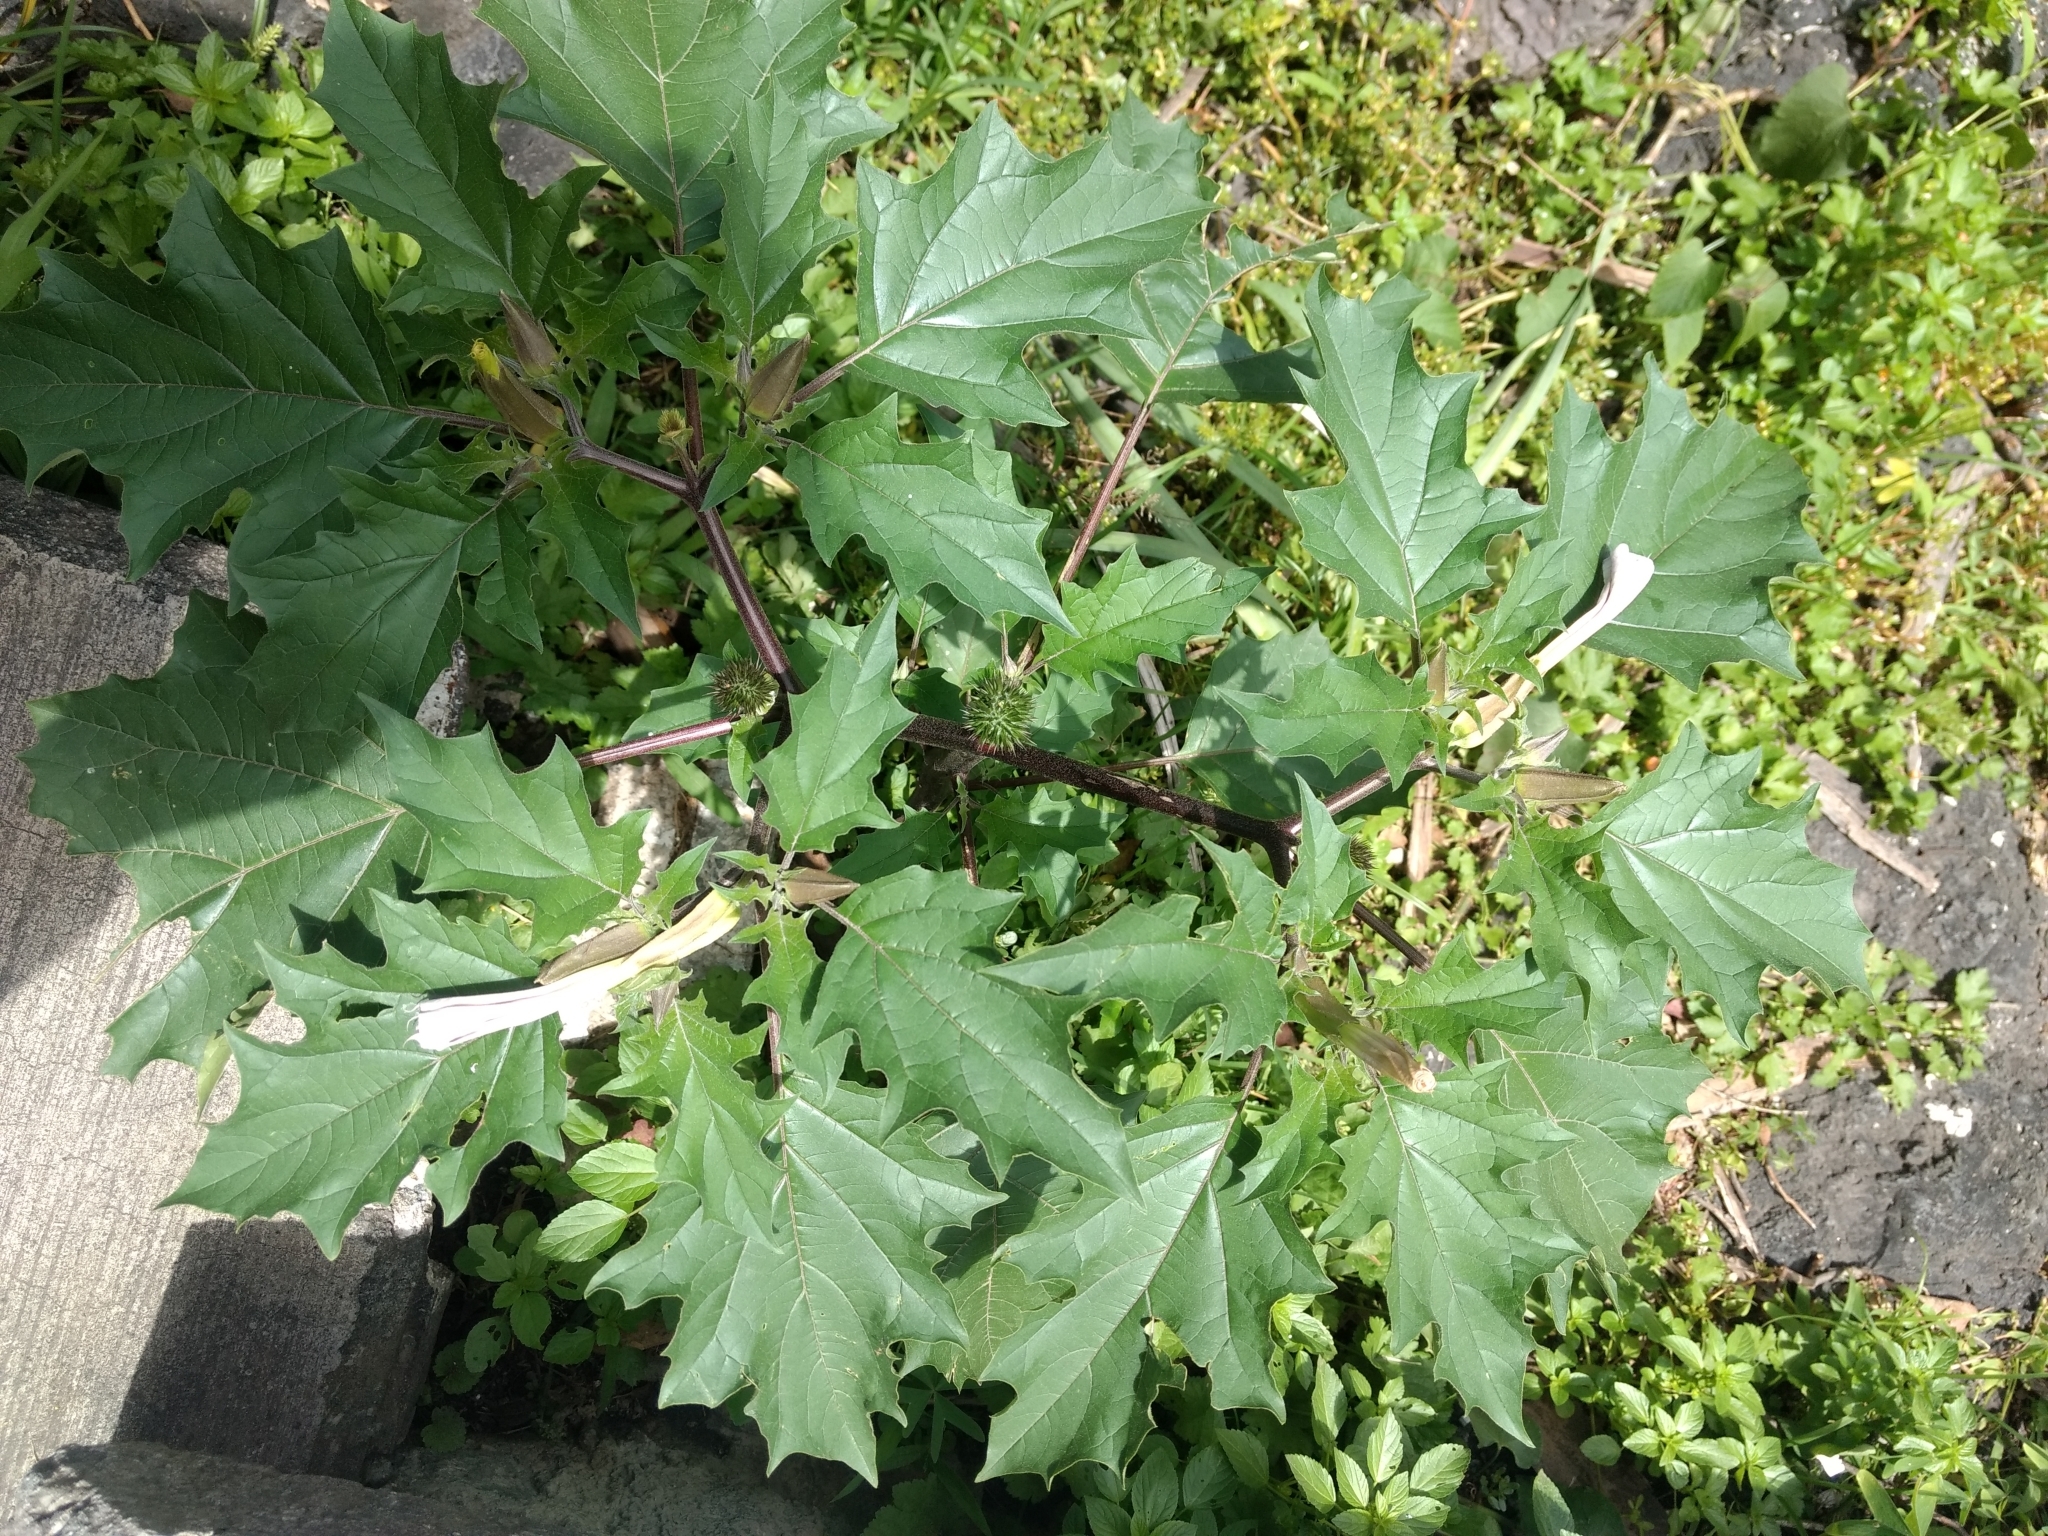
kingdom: Plantae
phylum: Tracheophyta
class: Magnoliopsida
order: Solanales
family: Solanaceae
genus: Datura
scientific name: Datura stramonium
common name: Thorn-apple
